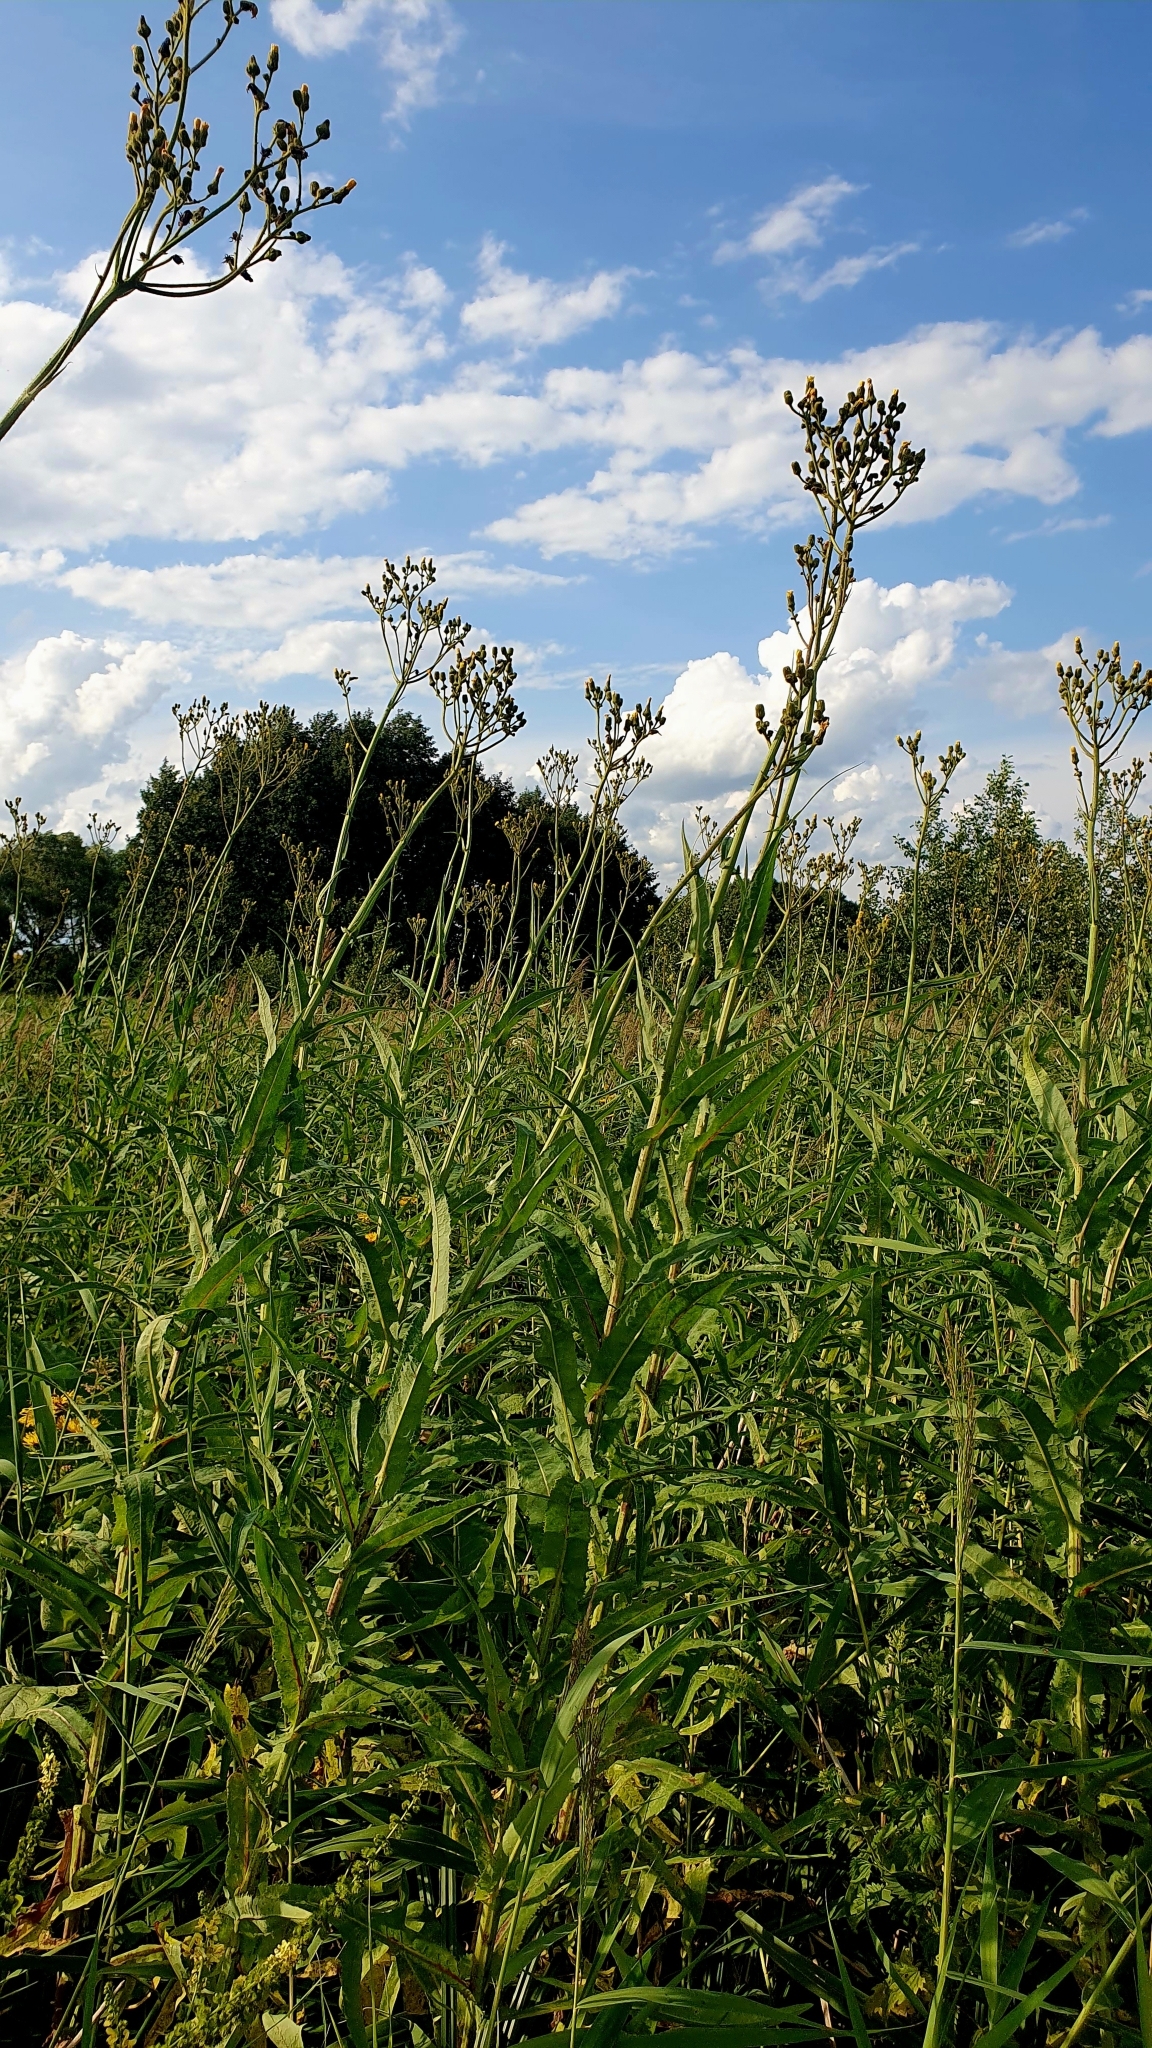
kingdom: Plantae
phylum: Tracheophyta
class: Magnoliopsida
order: Asterales
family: Asteraceae
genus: Sonchus
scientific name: Sonchus palustris
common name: Marsh sow-thistle
